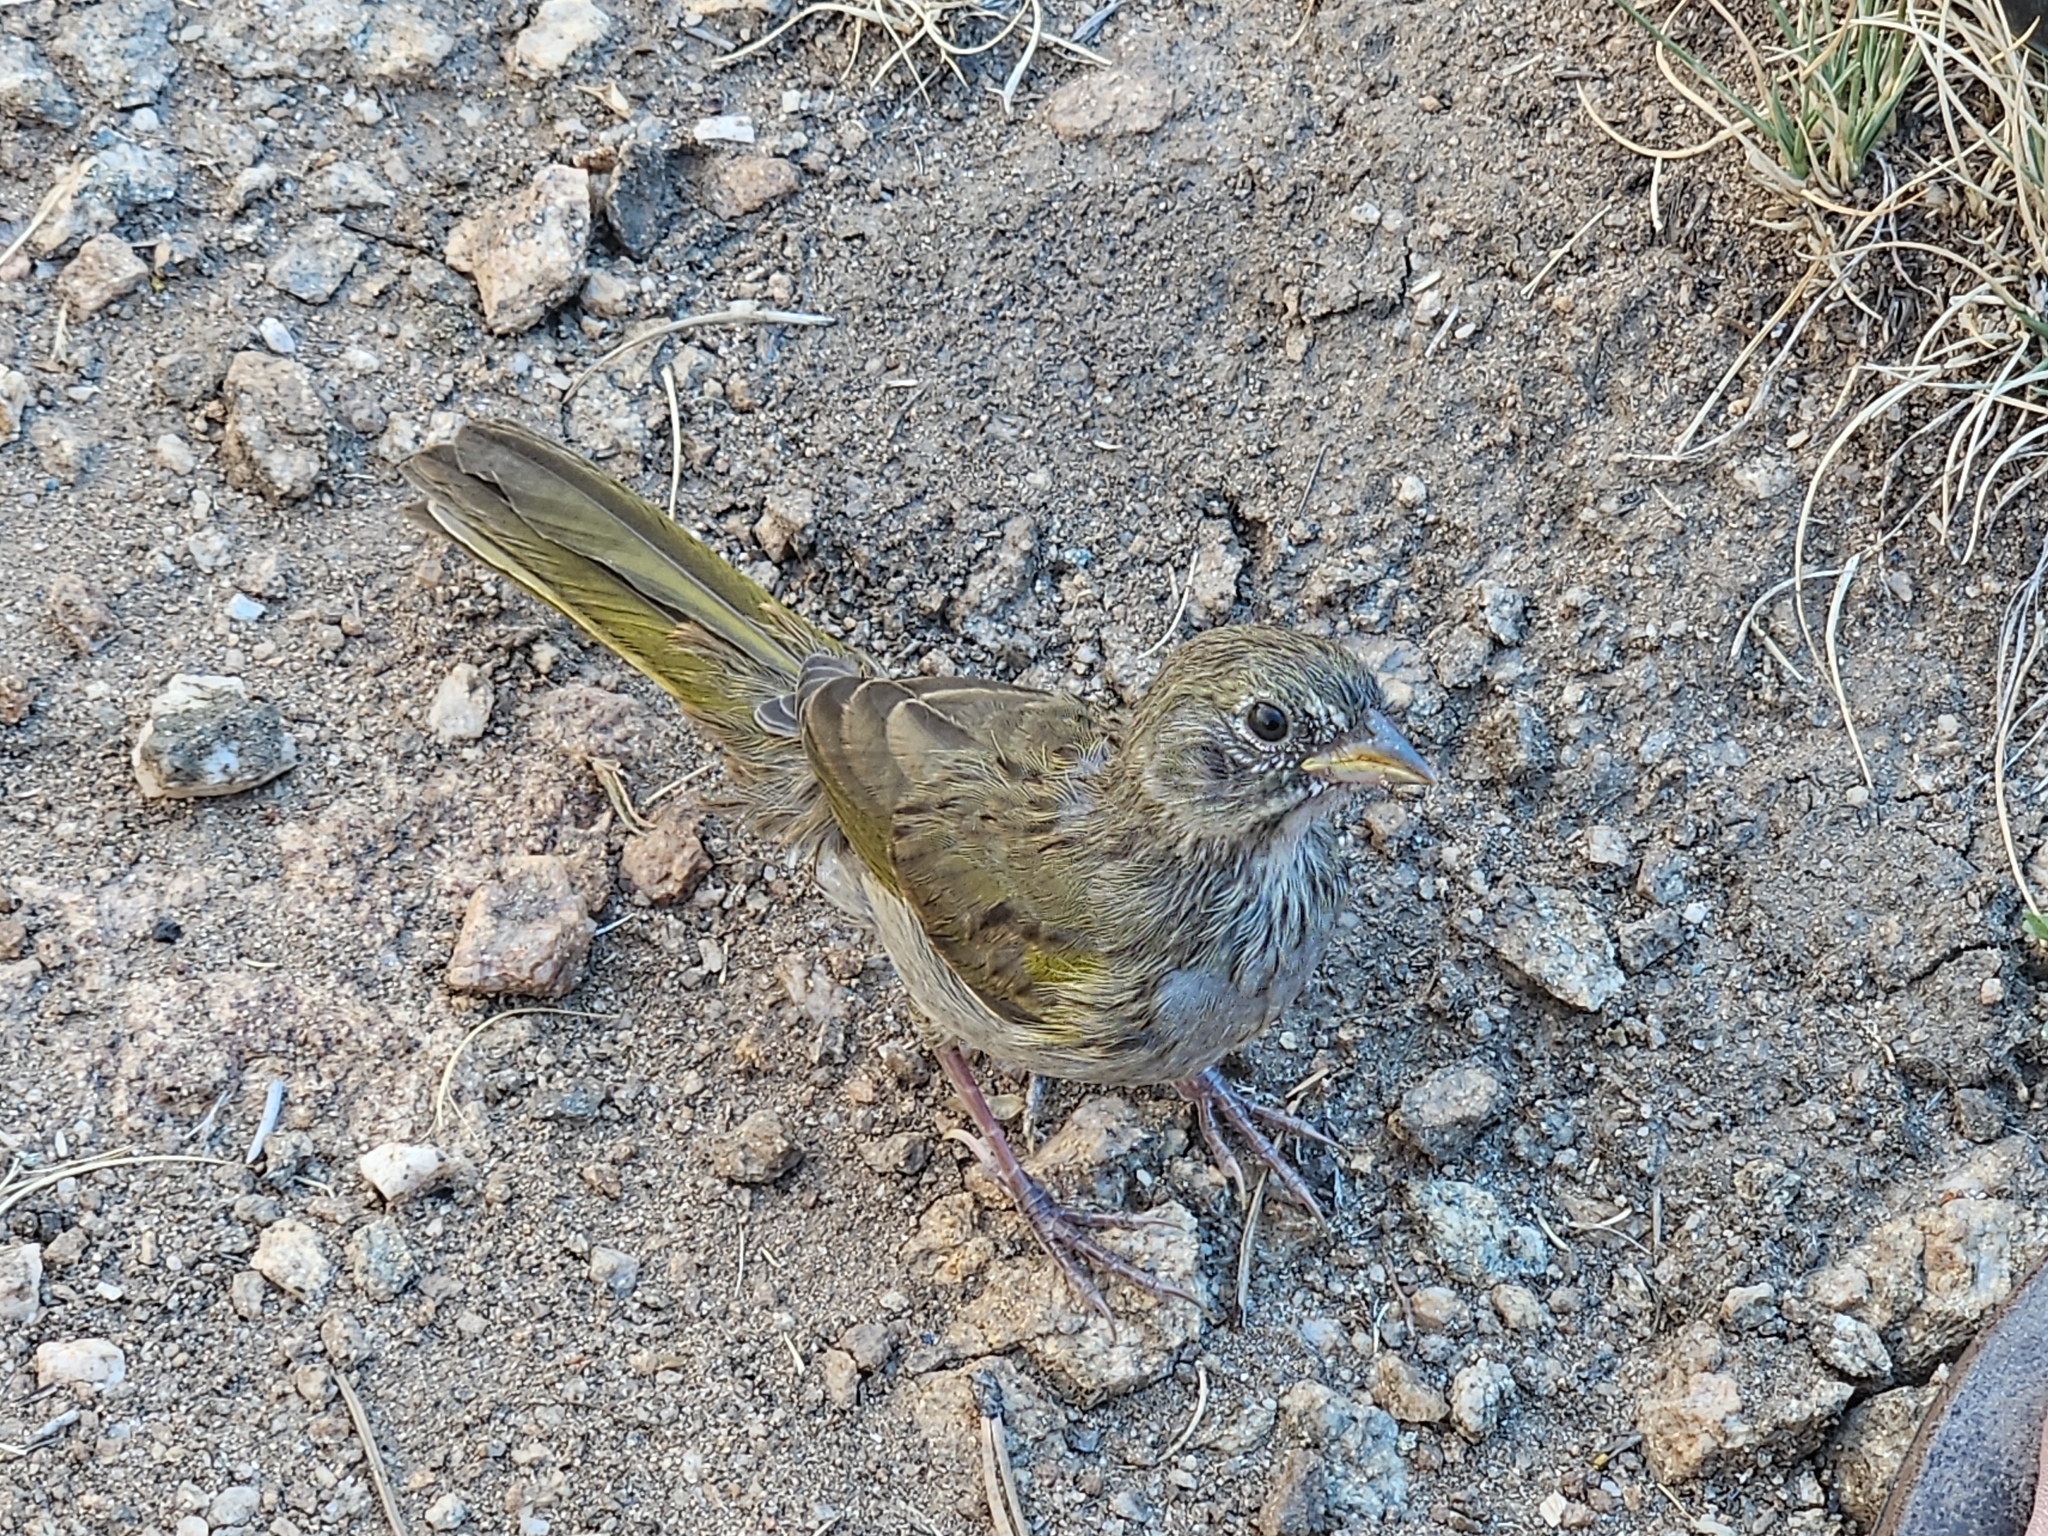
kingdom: Animalia
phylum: Chordata
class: Aves
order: Passeriformes
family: Passerellidae
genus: Pipilo
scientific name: Pipilo chlorurus
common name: Green-tailed towhee
